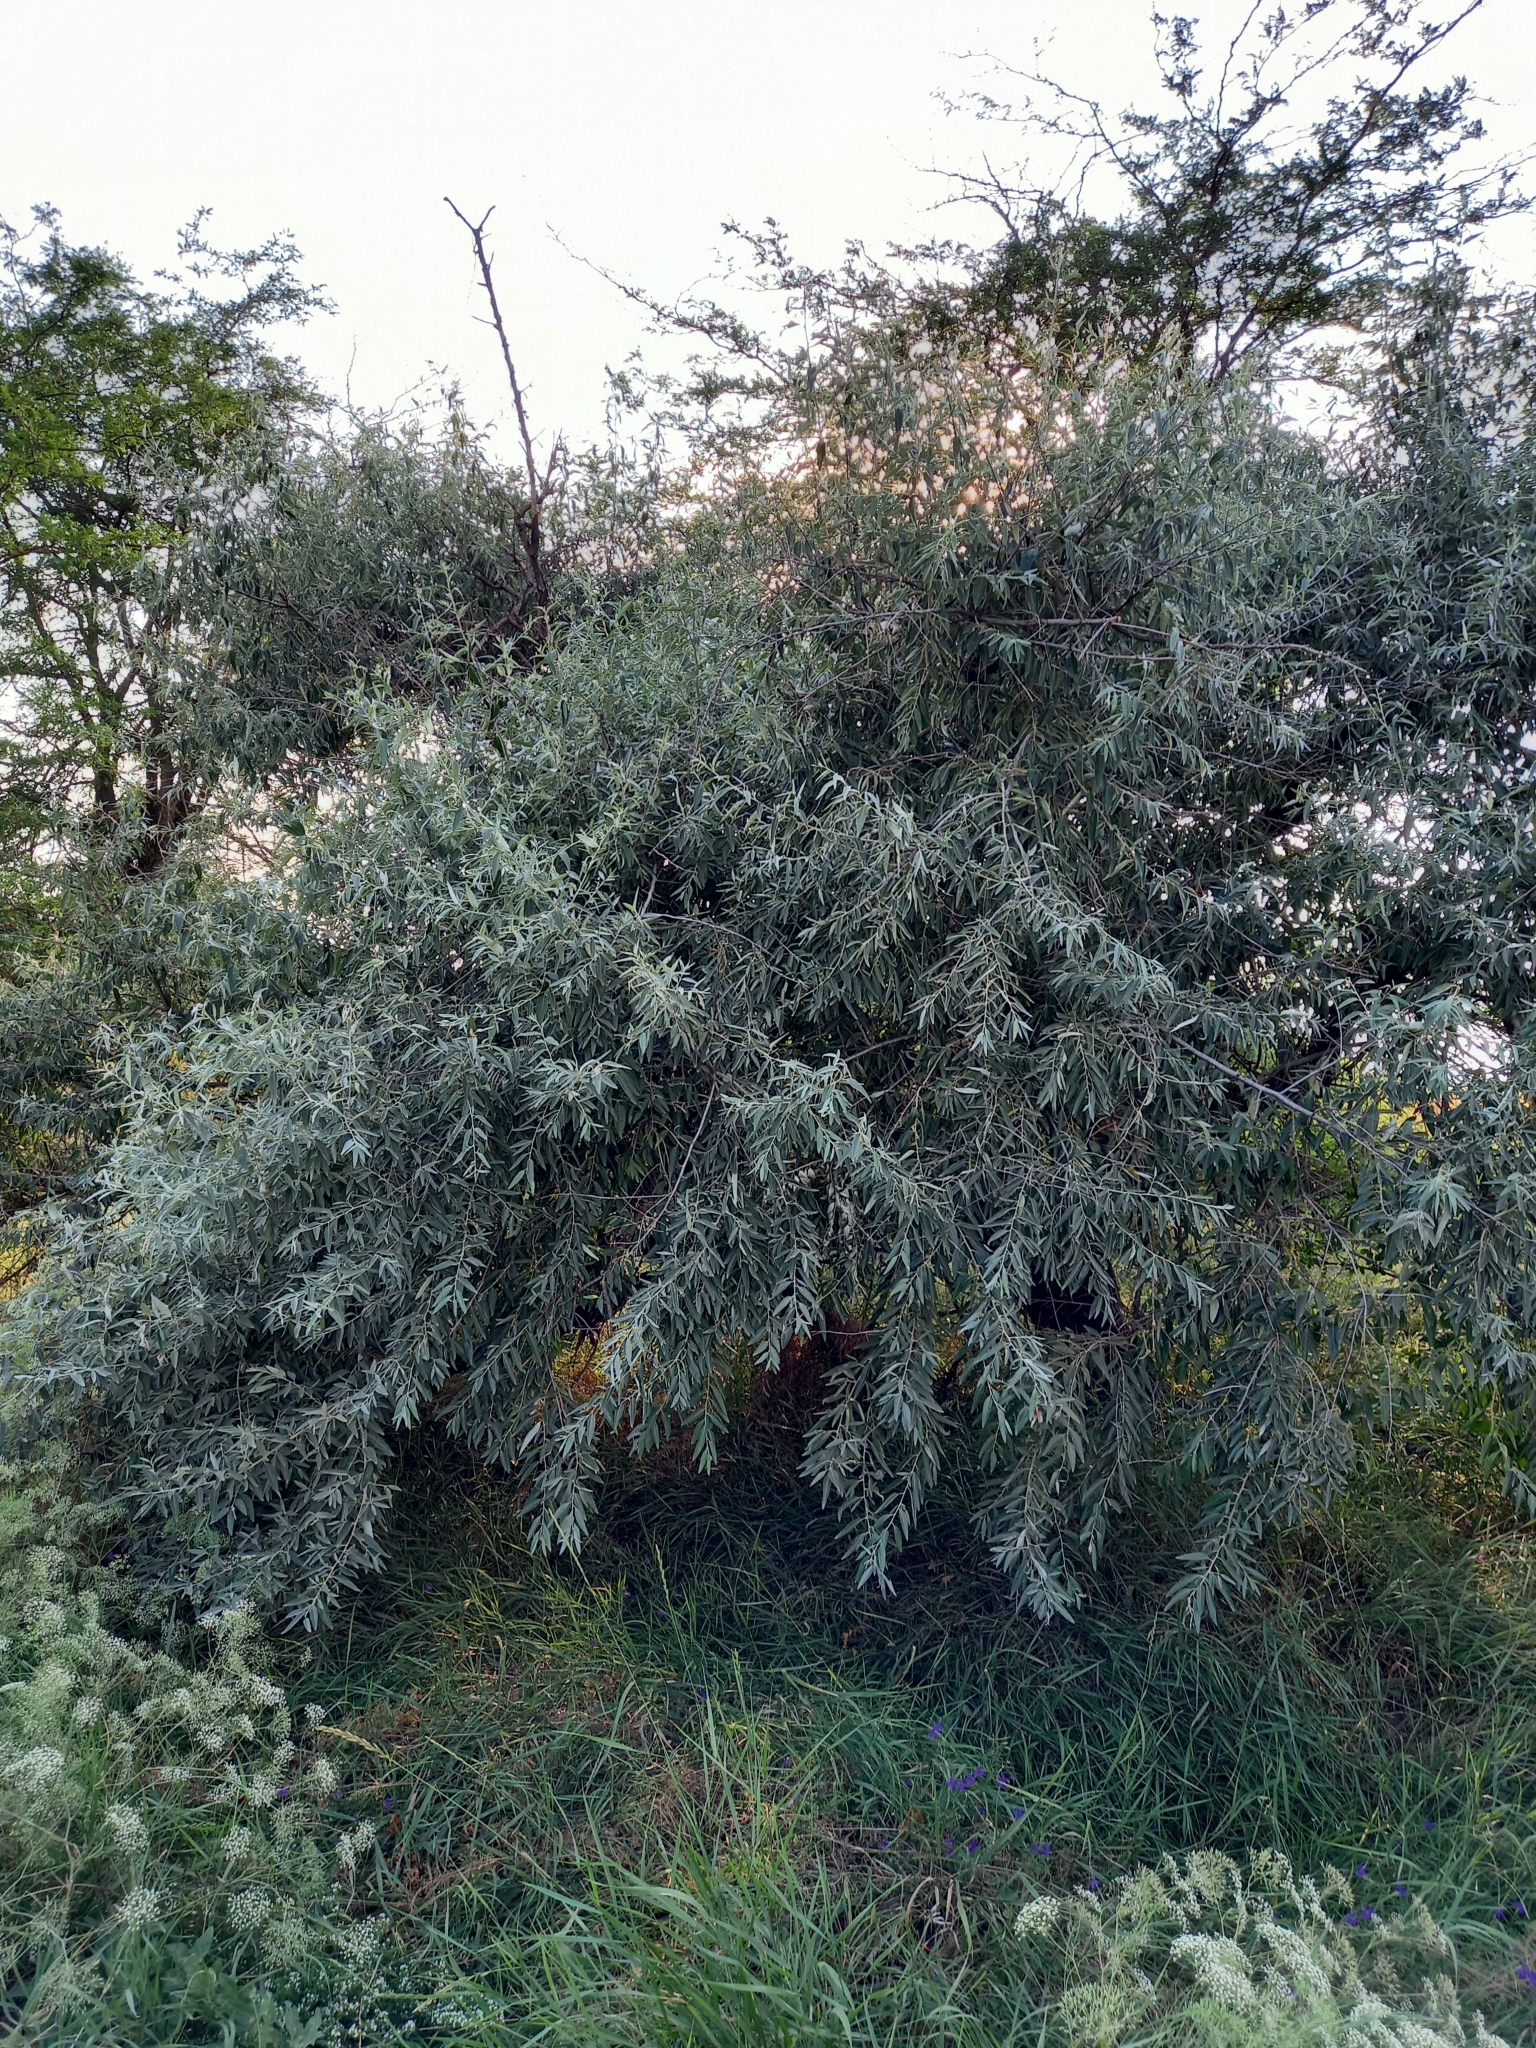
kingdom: Plantae
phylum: Tracheophyta
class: Magnoliopsida
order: Rosales
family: Elaeagnaceae
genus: Elaeagnus
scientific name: Elaeagnus angustifolia
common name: Russian olive
